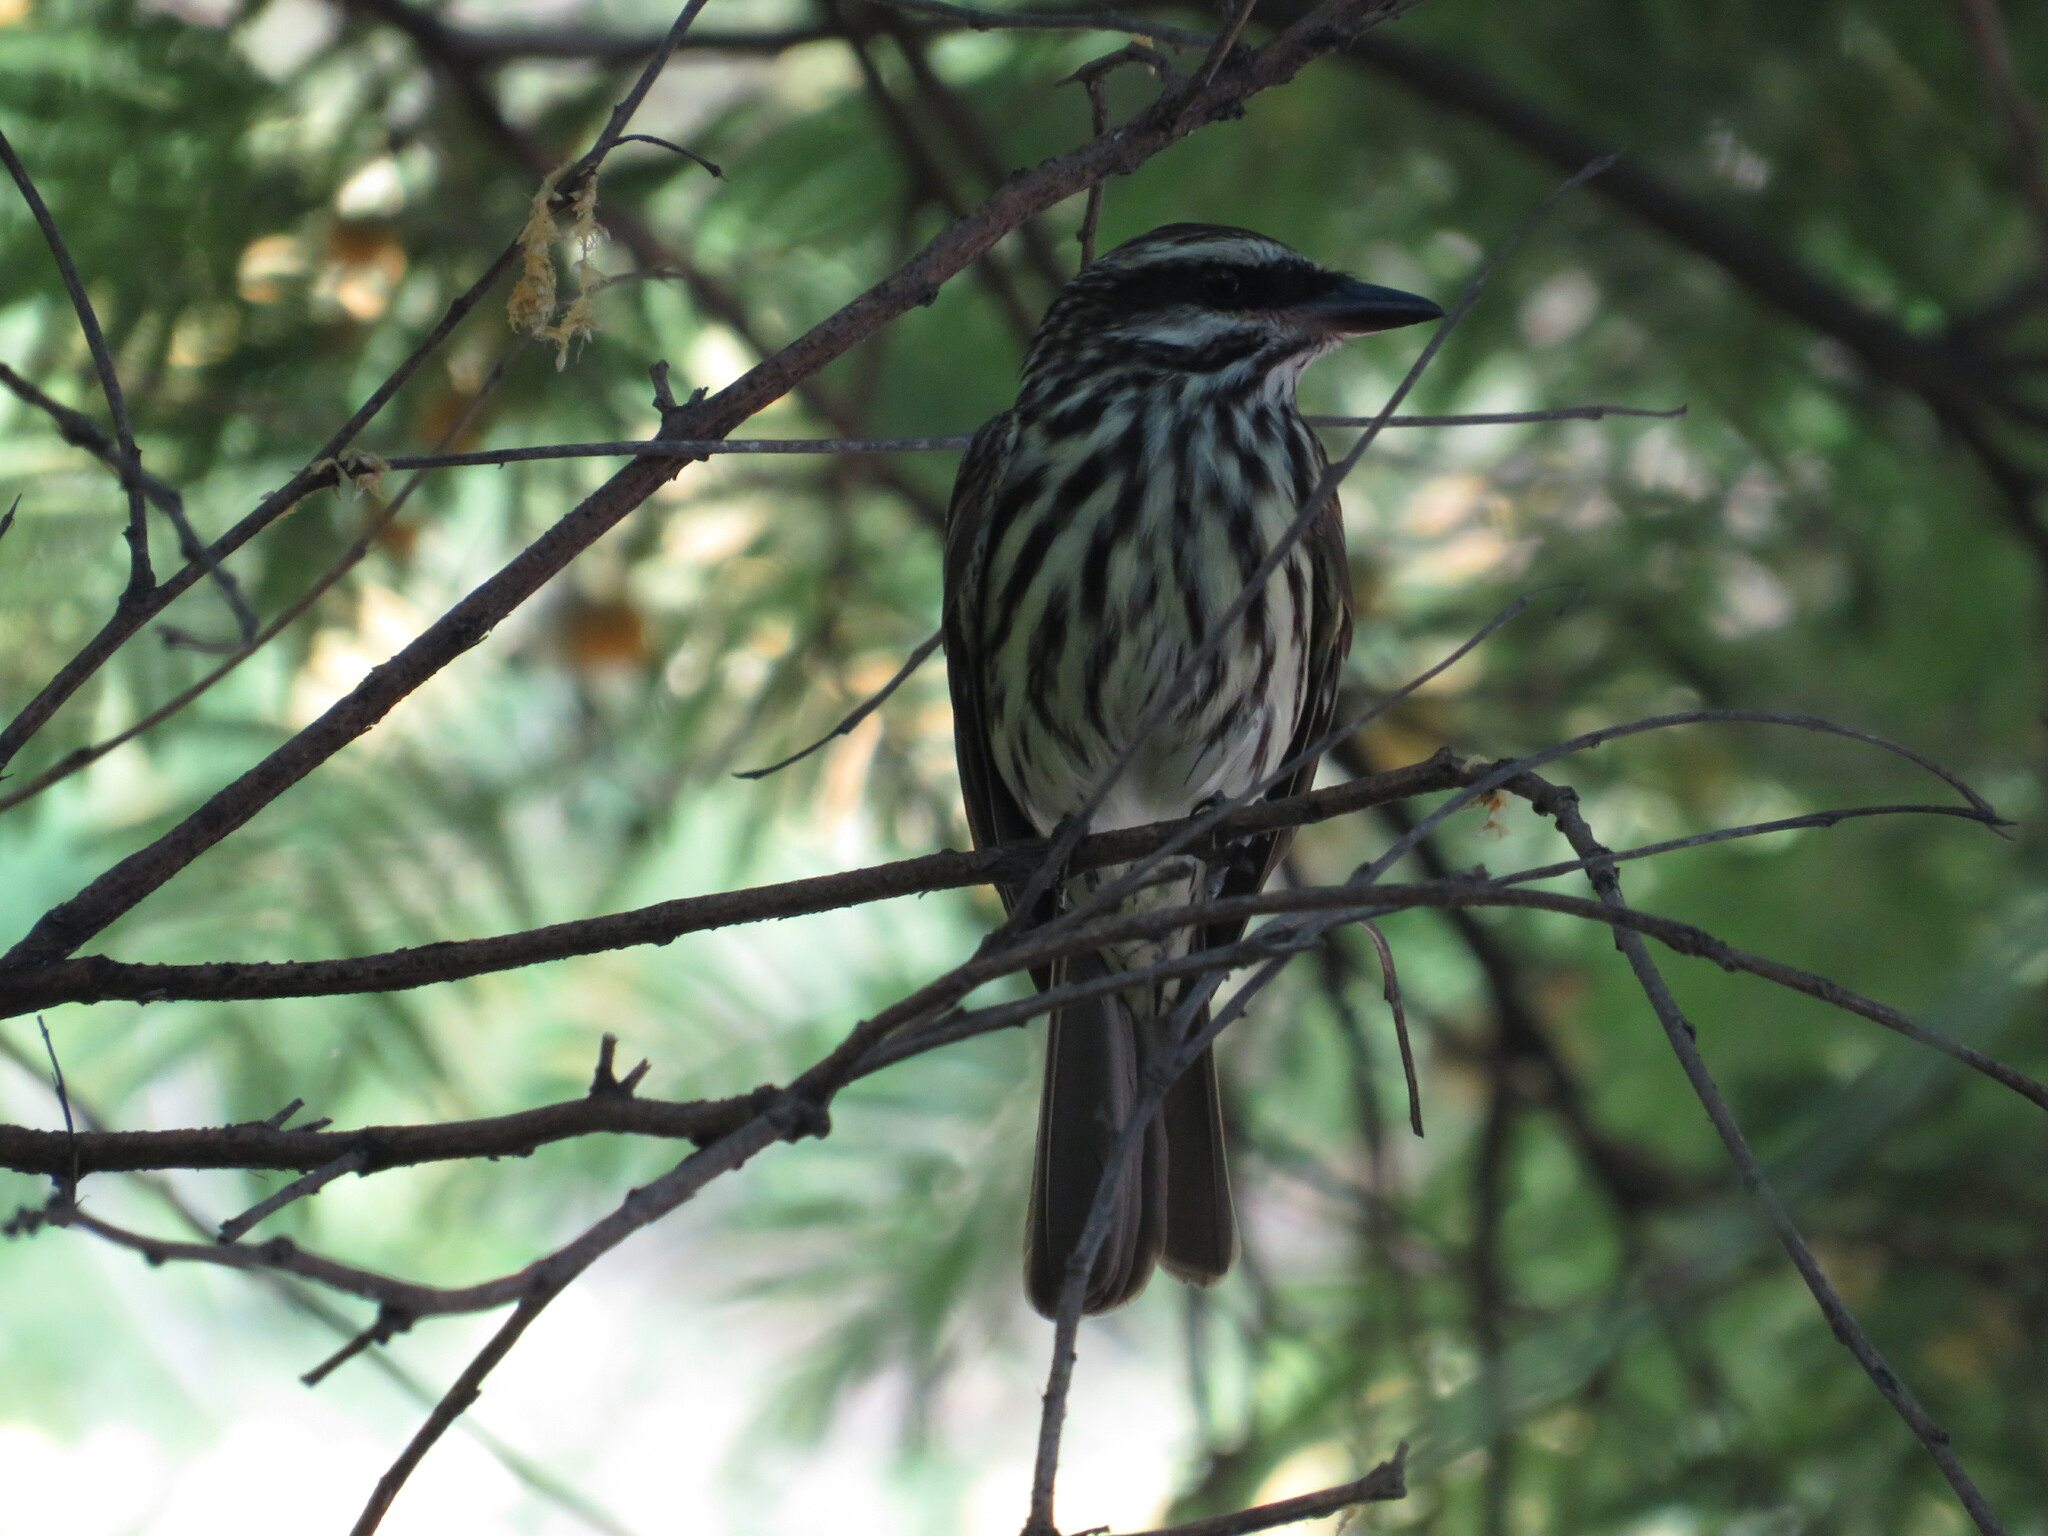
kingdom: Animalia
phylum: Chordata
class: Aves
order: Passeriformes
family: Tyrannidae
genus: Myiodynastes
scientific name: Myiodynastes maculatus
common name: Streaked flycatcher
